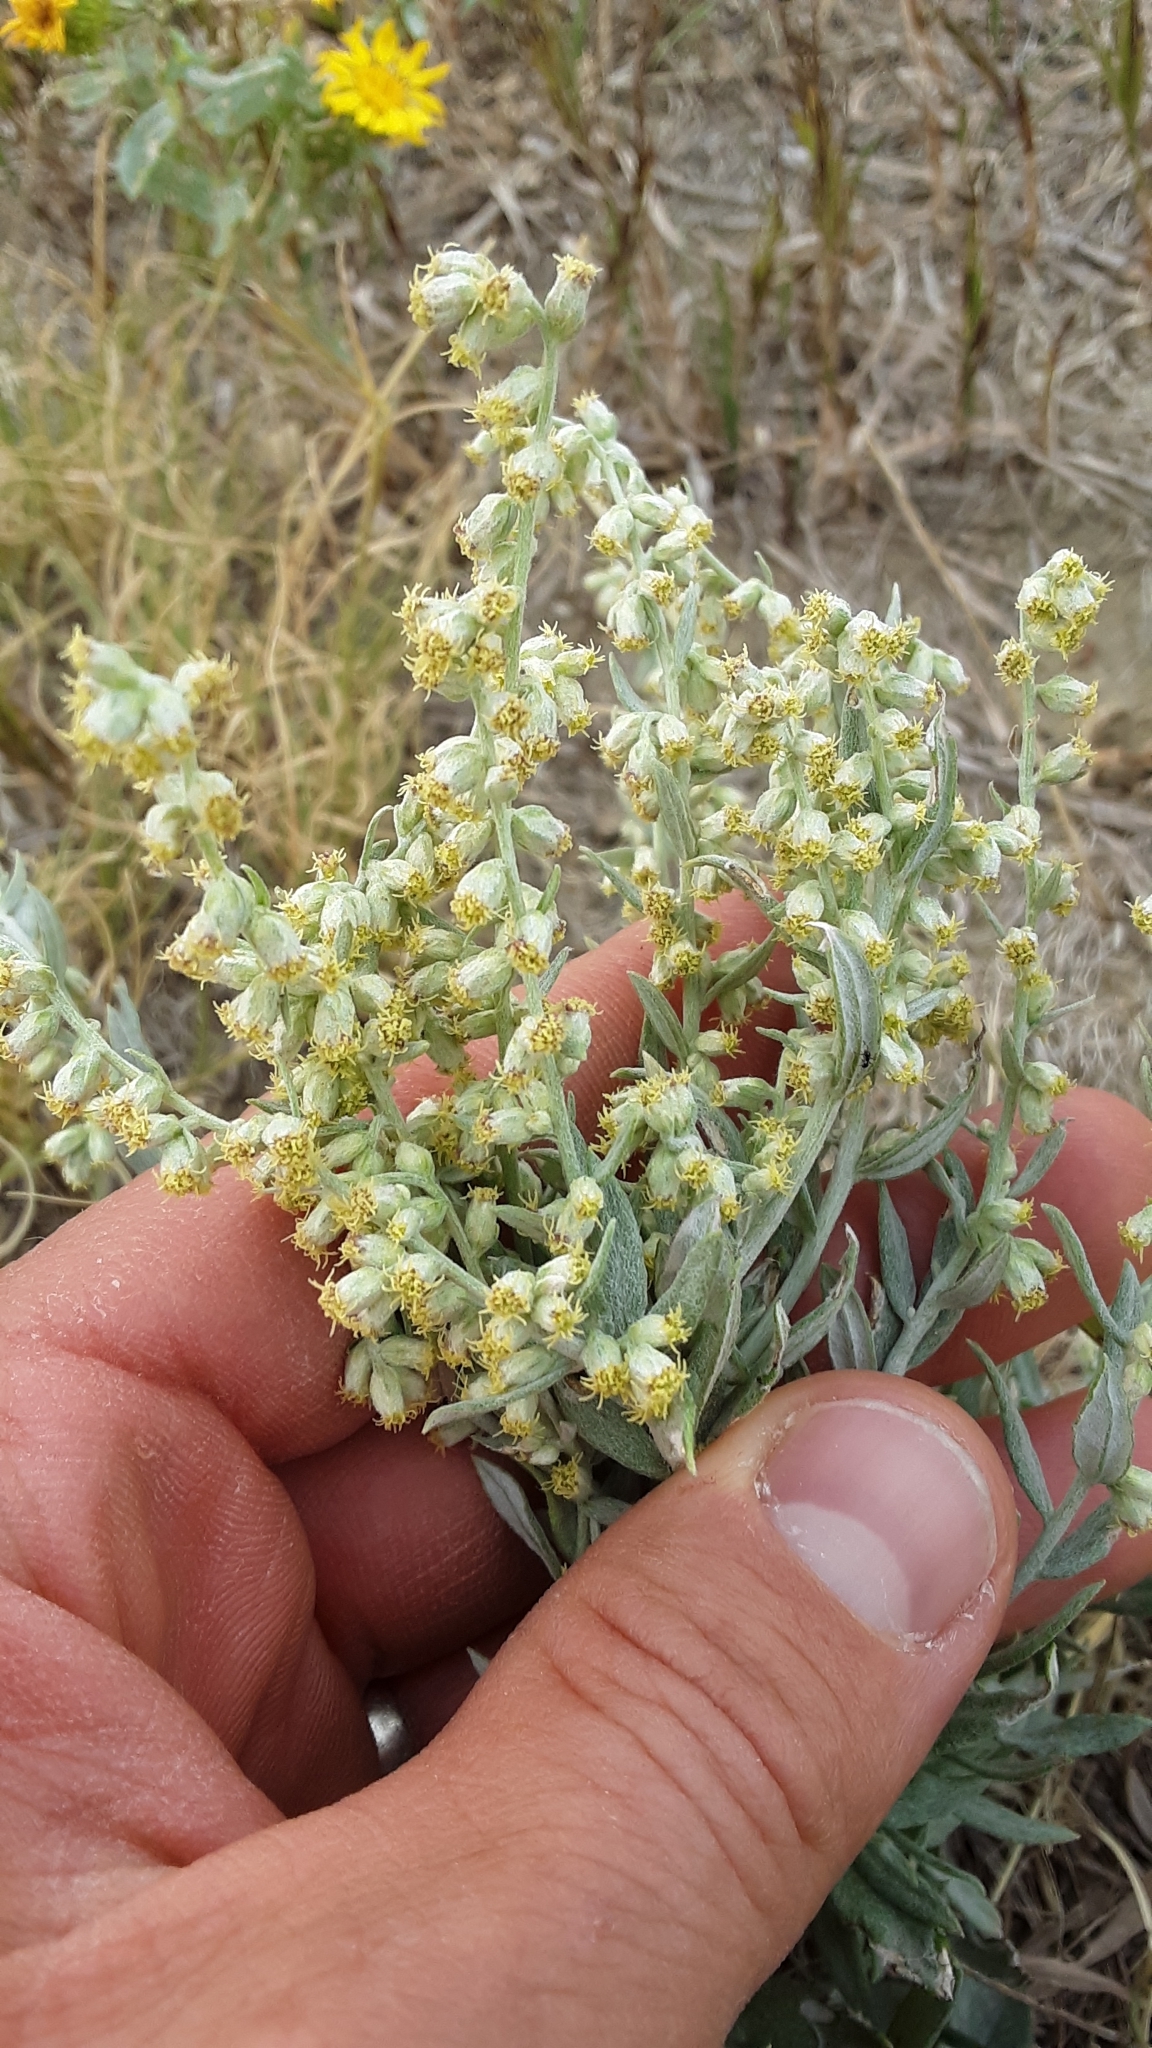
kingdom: Plantae
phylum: Tracheophyta
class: Magnoliopsida
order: Asterales
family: Asteraceae
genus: Artemisia
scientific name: Artemisia ludoviciana
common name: Western mugwort
